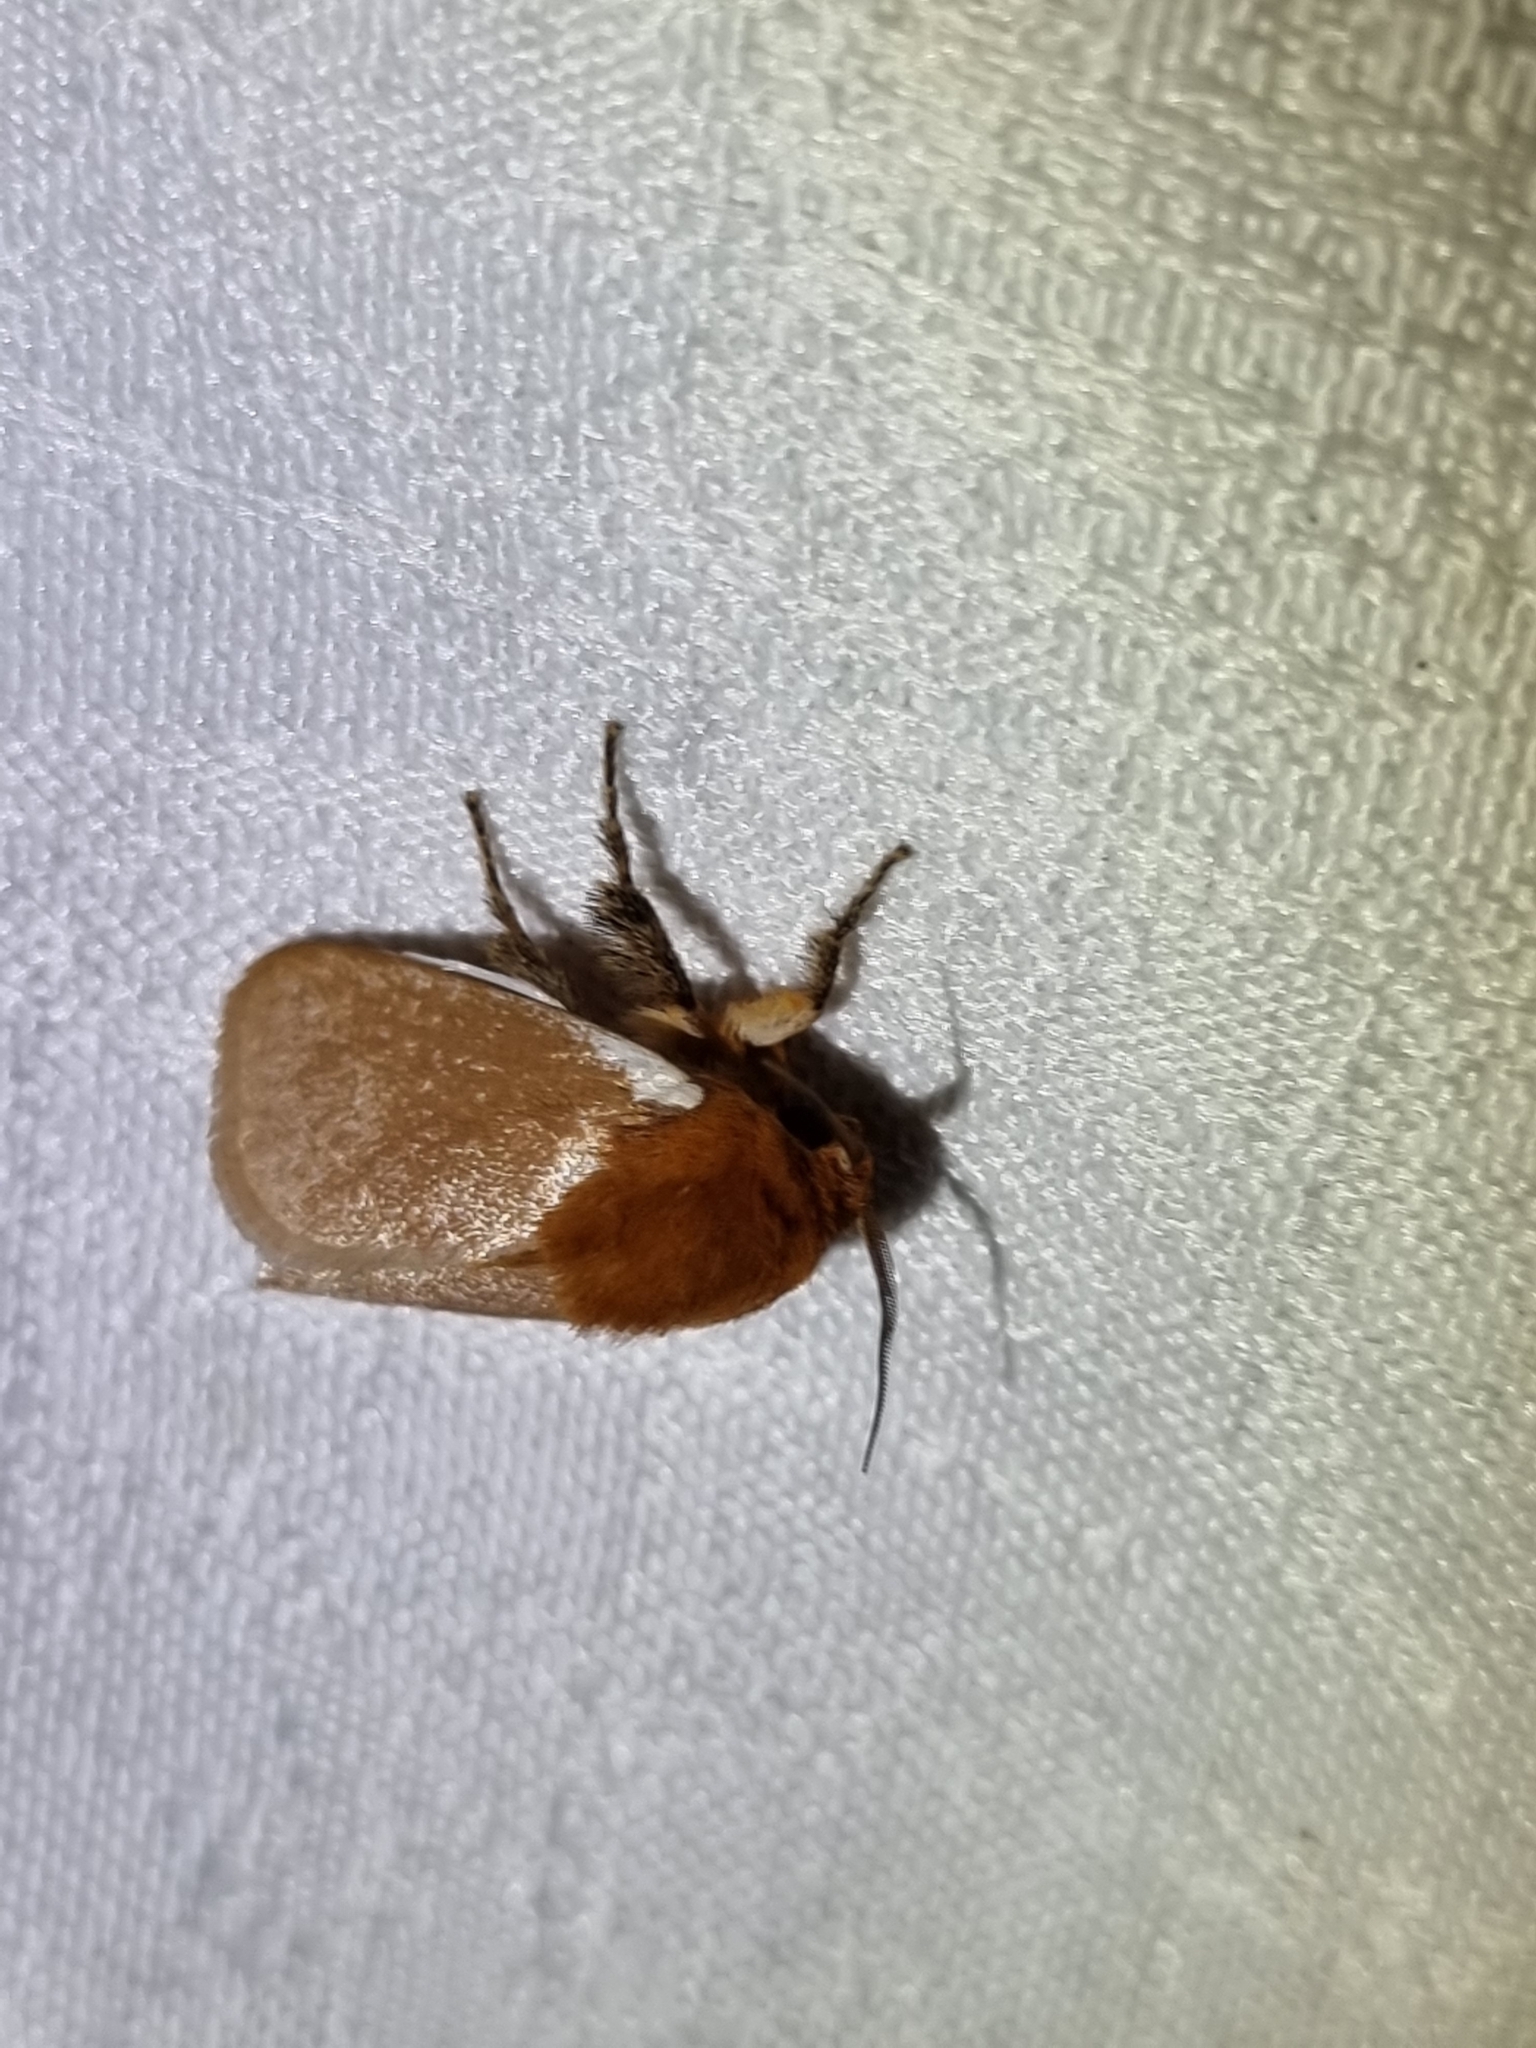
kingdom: Animalia
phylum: Arthropoda
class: Insecta
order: Lepidoptera
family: Limacodidae
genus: Comana
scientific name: Comana albibasis
